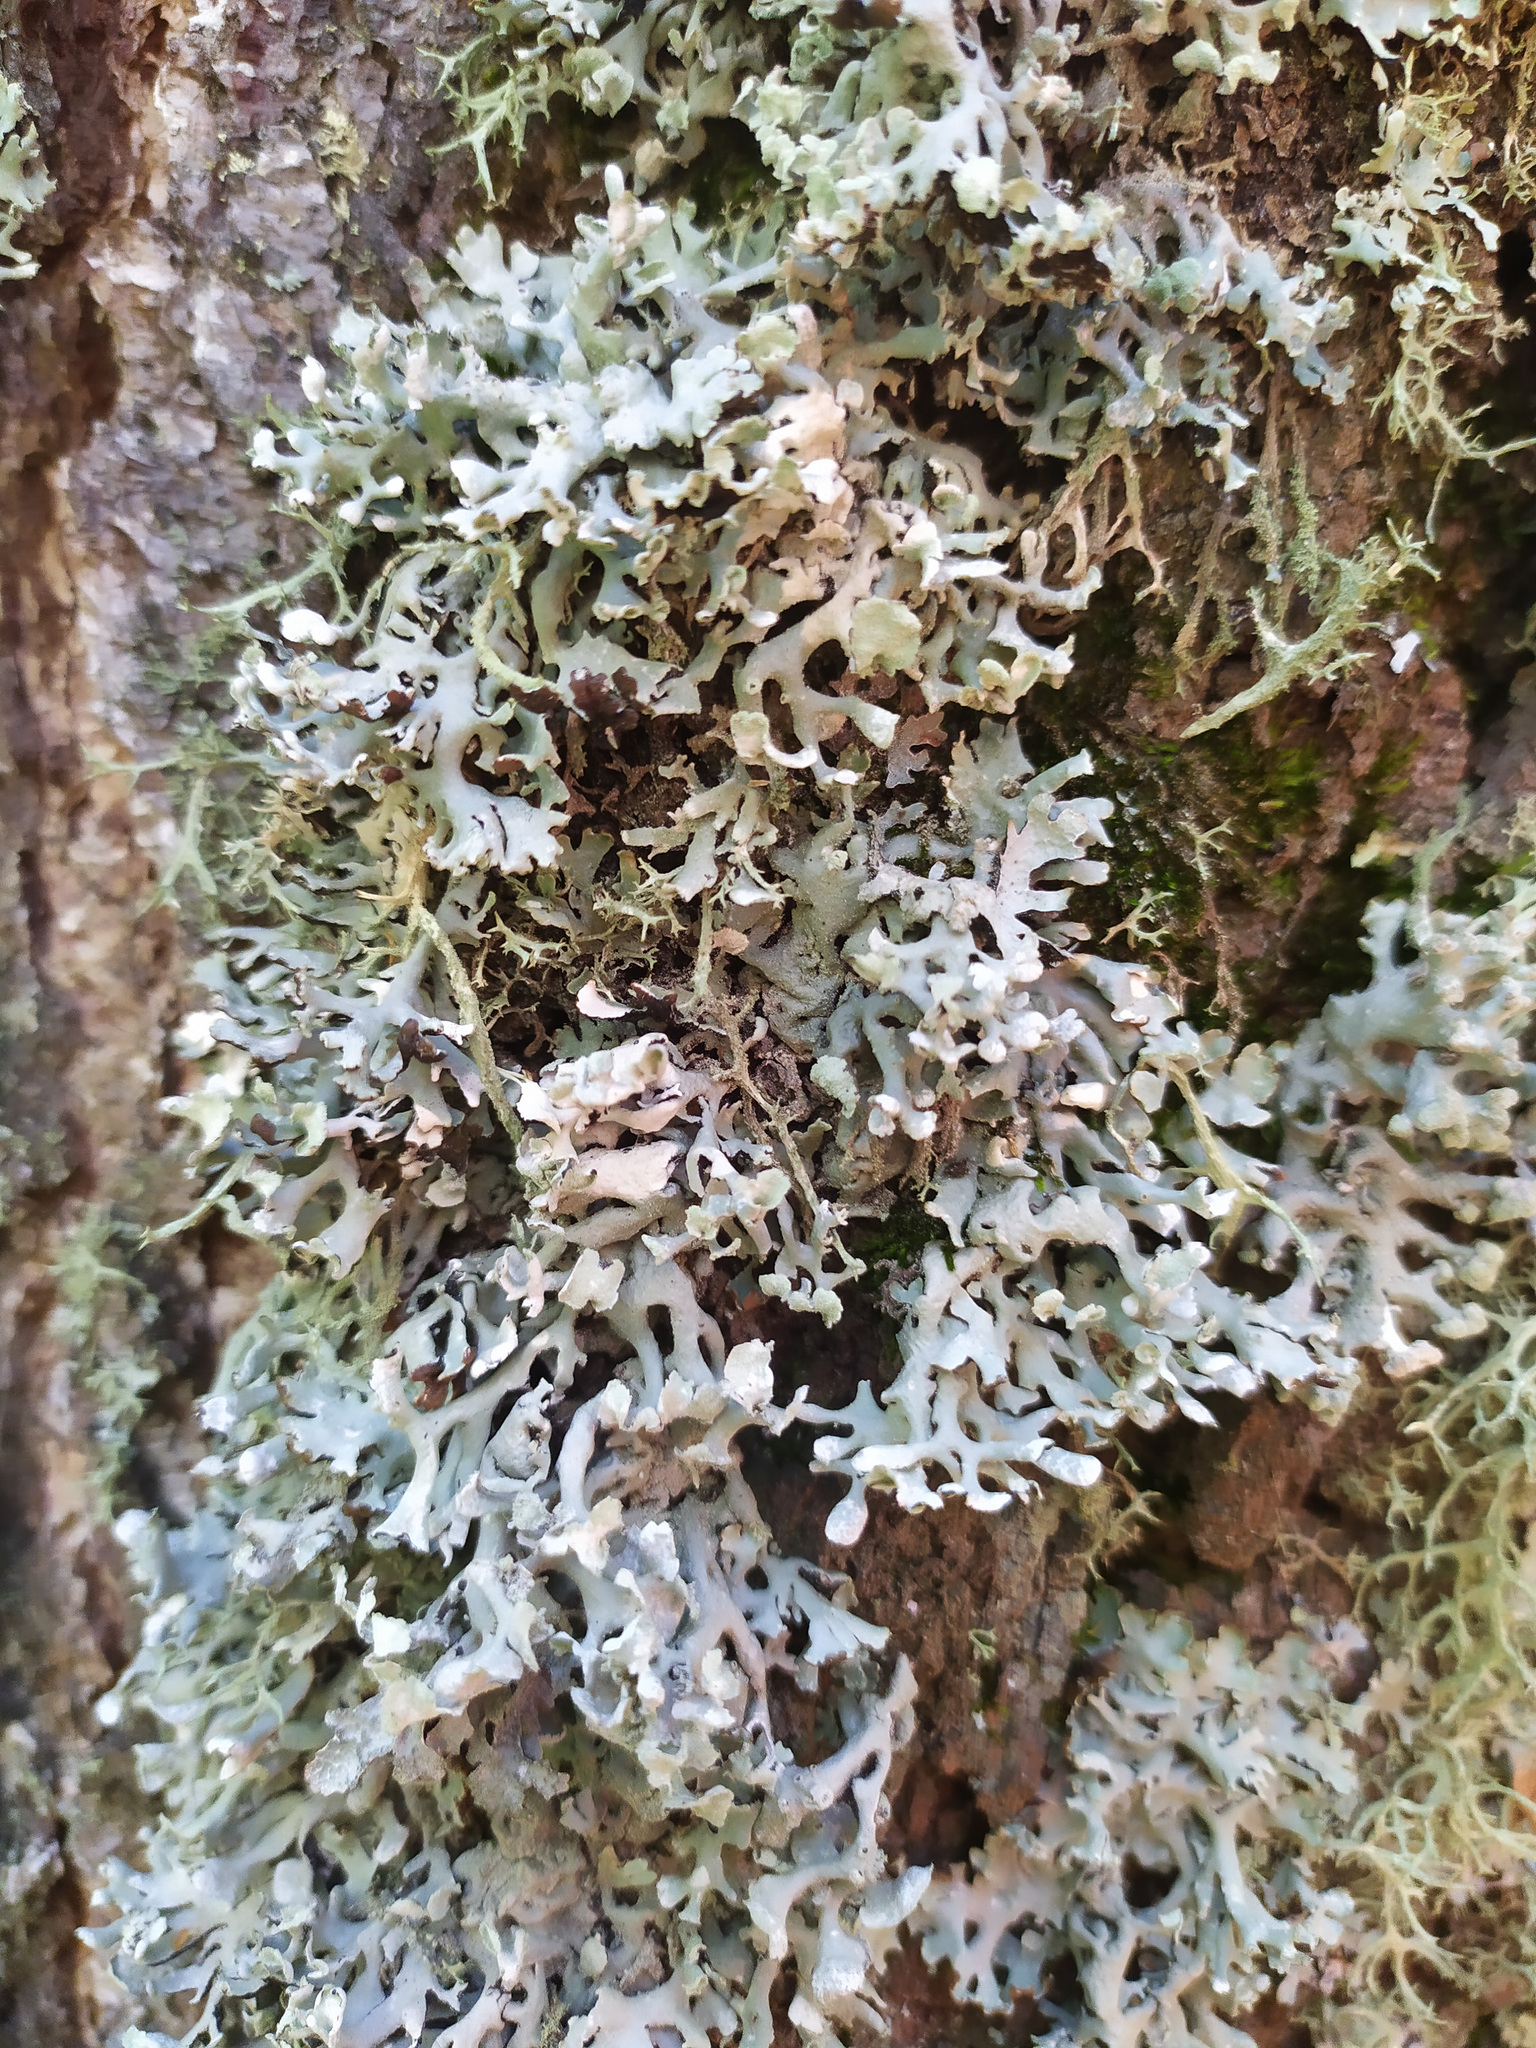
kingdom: Fungi
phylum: Ascomycota
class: Lecanoromycetes
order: Lecanorales
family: Parmeliaceae
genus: Hypogymnia
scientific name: Hypogymnia physodes
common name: Dark crottle
